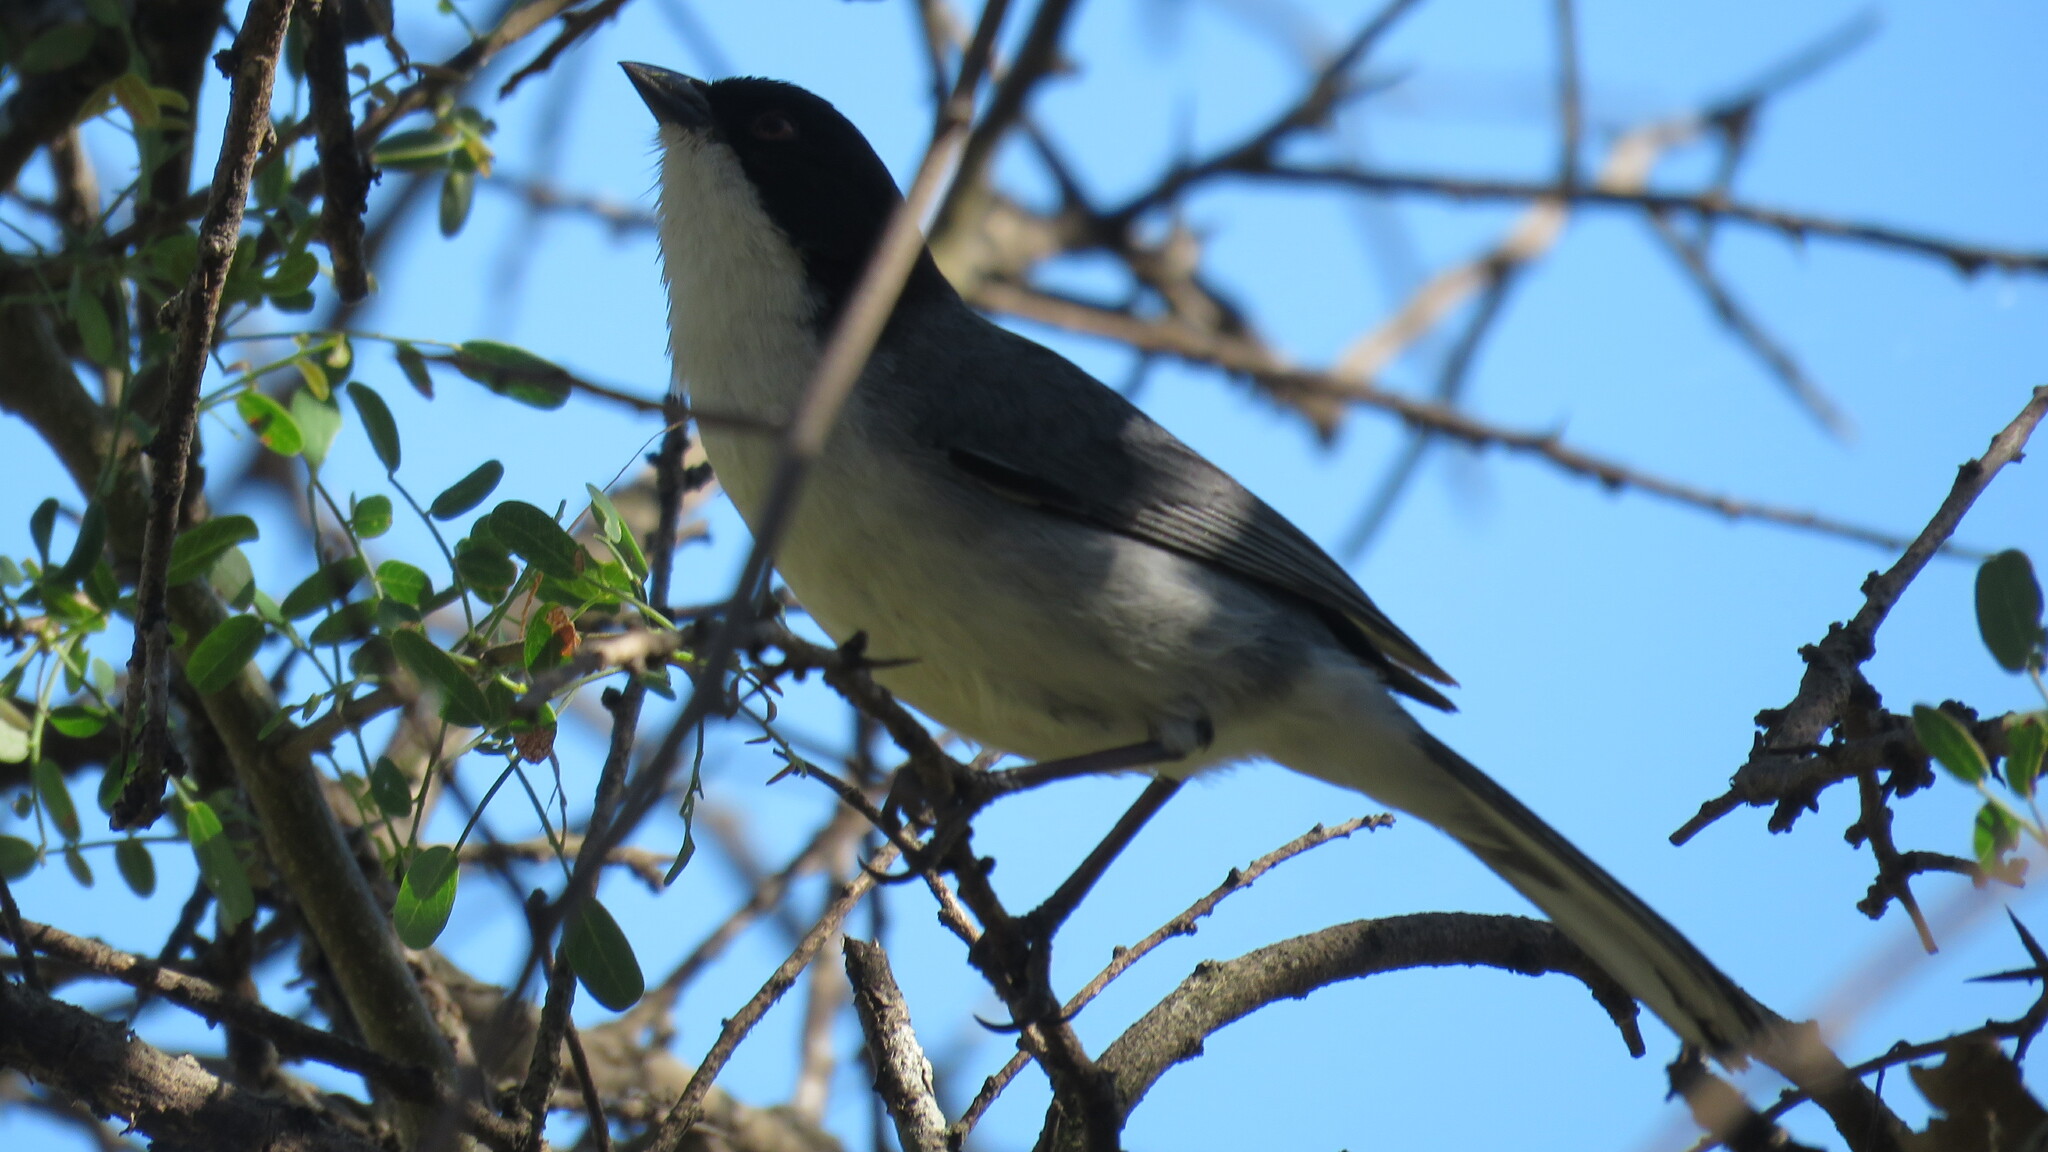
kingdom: Animalia
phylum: Chordata
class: Aves
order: Passeriformes
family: Thraupidae
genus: Microspingus
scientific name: Microspingus melanoleucus
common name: Black-capped warbling-finch
